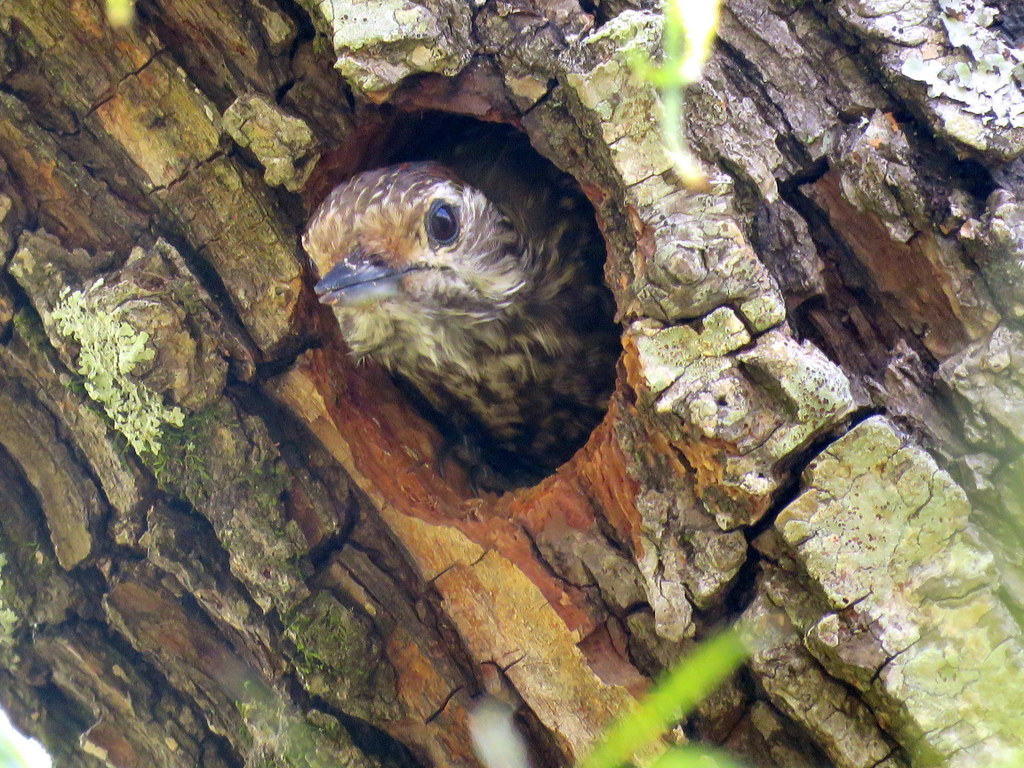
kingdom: Animalia
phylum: Chordata
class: Aves
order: Piciformes
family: Picidae
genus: Veniliornis
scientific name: Veniliornis spilogaster
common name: White-spotted woodpecker
